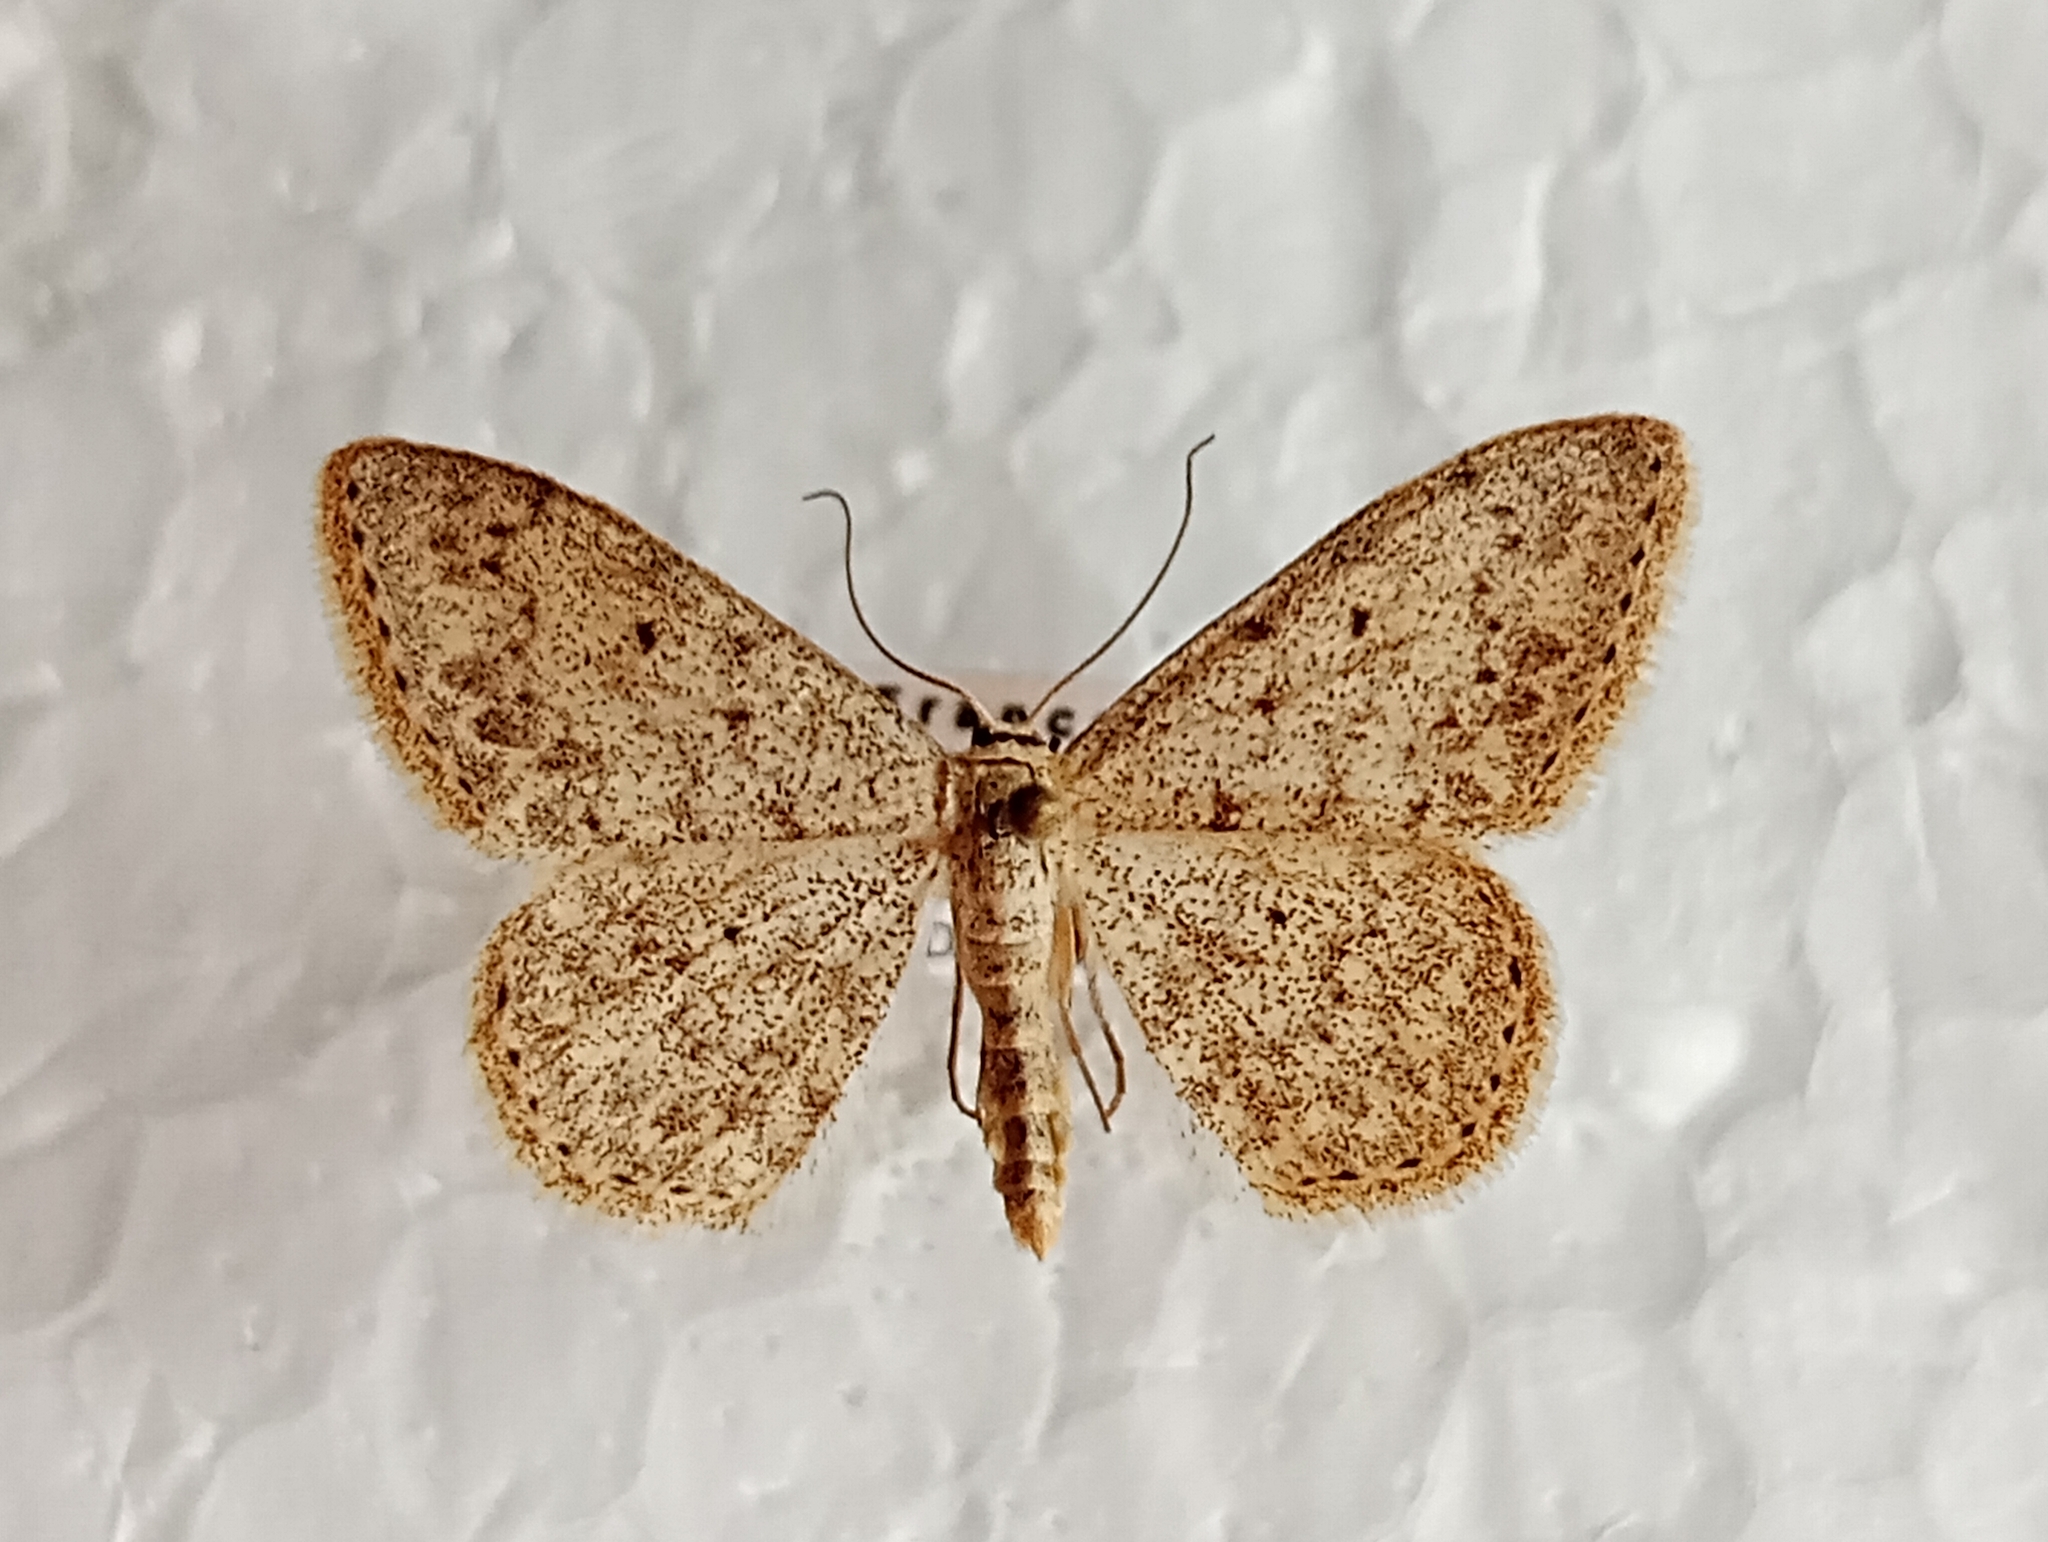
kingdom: Animalia
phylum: Arthropoda
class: Insecta
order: Lepidoptera
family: Geometridae
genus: Scopula
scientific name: Scopula marginepunctata
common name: Mullein wave
